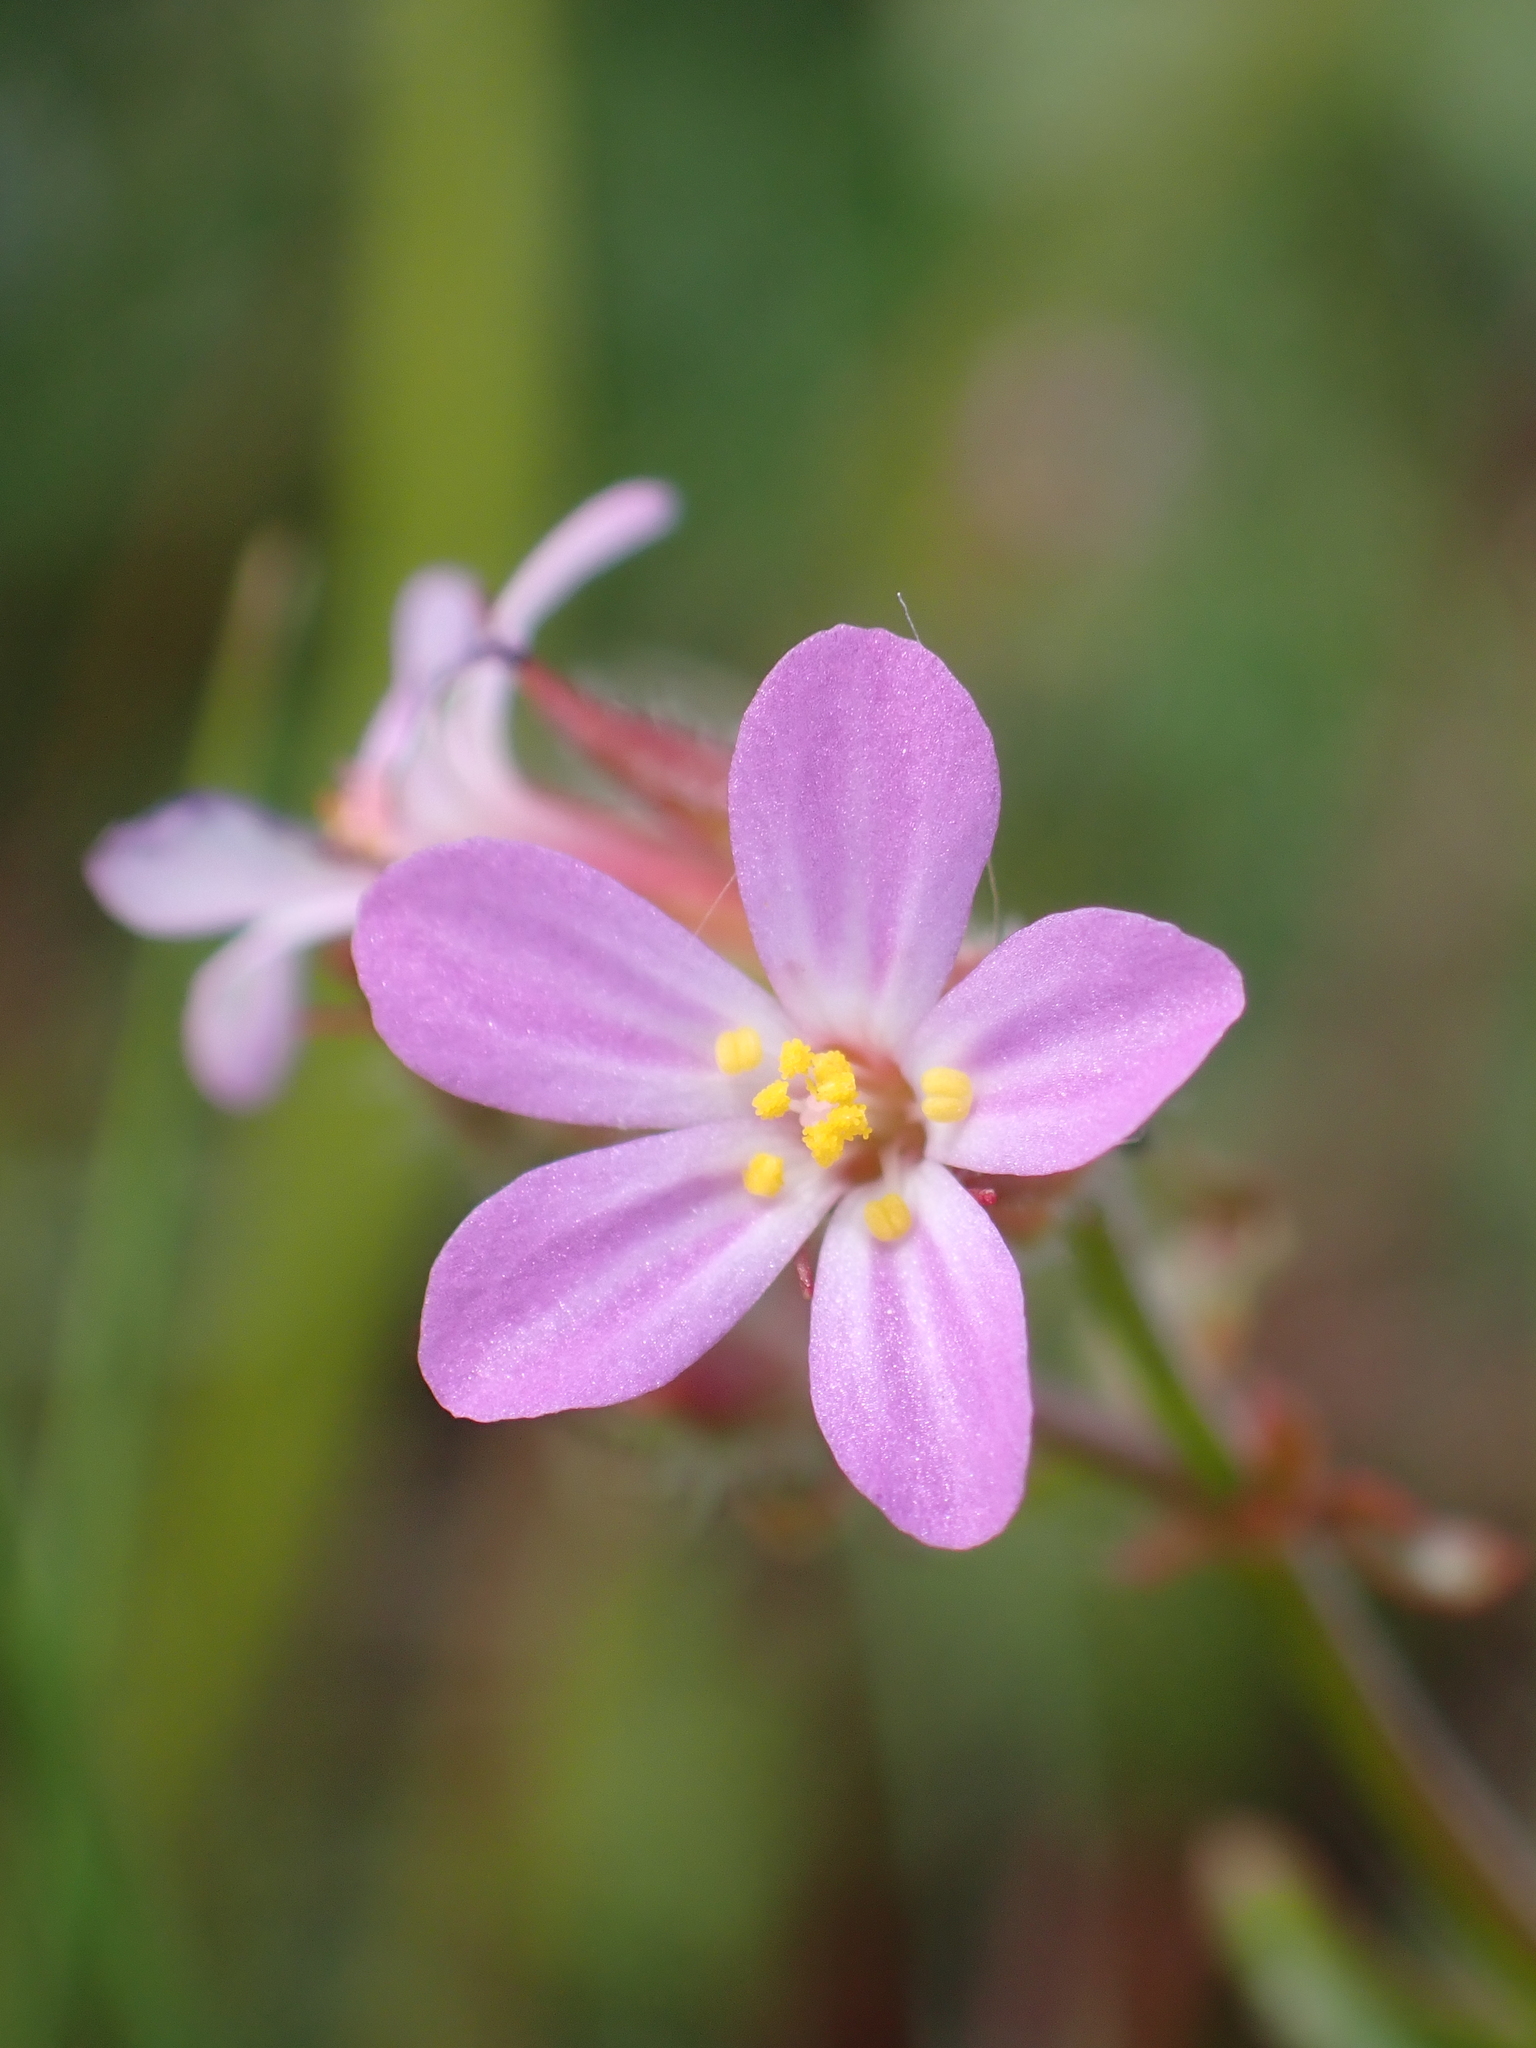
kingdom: Plantae
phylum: Tracheophyta
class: Magnoliopsida
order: Geraniales
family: Geraniaceae
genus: Geranium
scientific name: Geranium purpureum
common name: Little-robin
